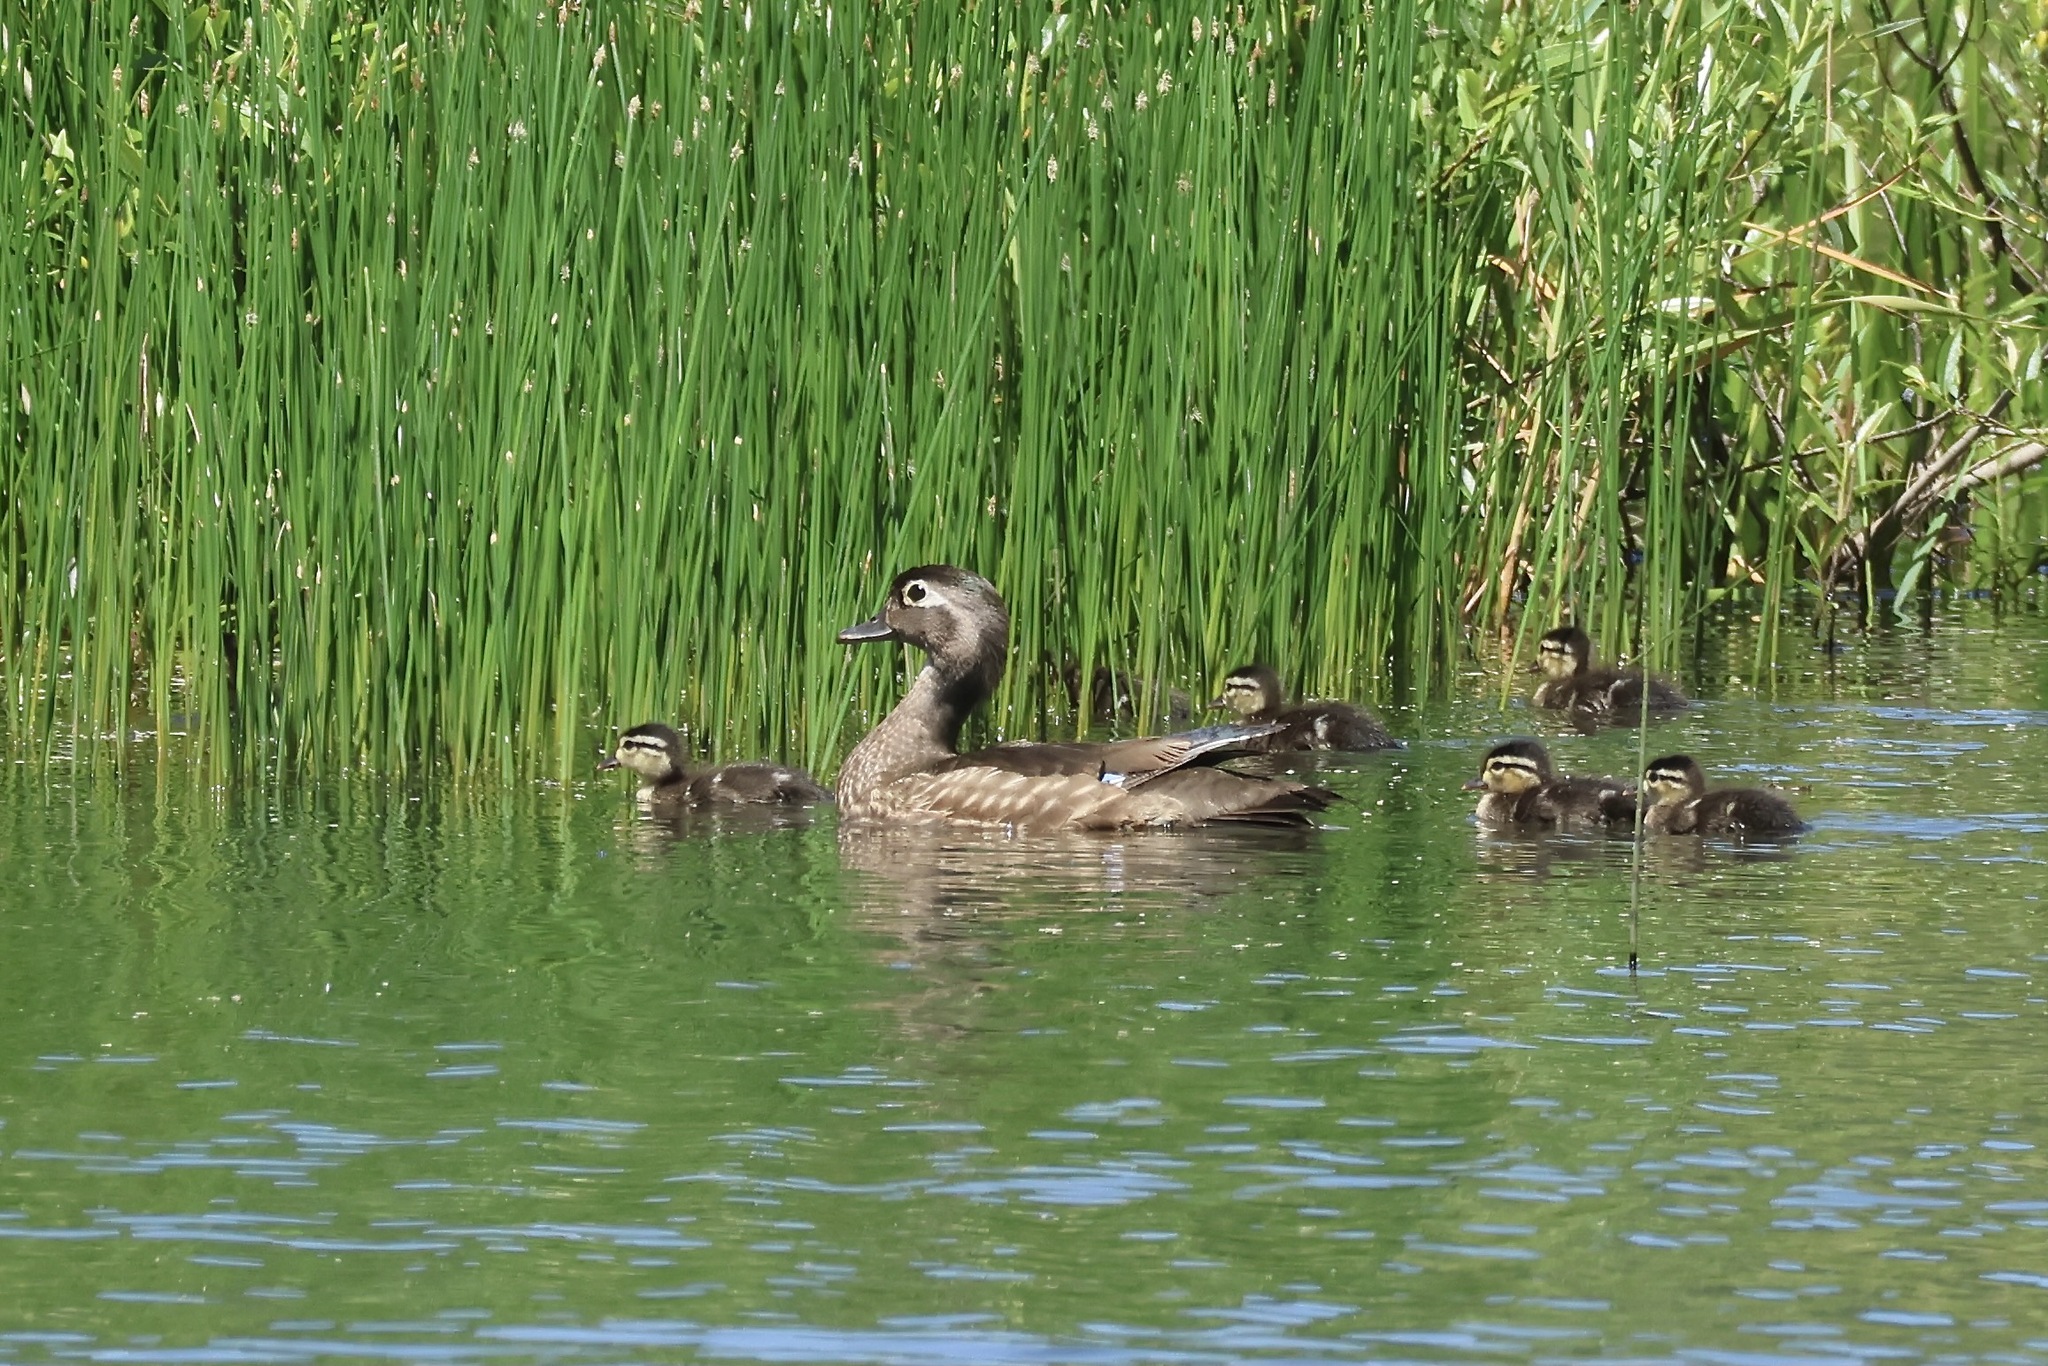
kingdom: Animalia
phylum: Chordata
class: Aves
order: Anseriformes
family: Anatidae
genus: Aix
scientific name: Aix sponsa
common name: Wood duck
